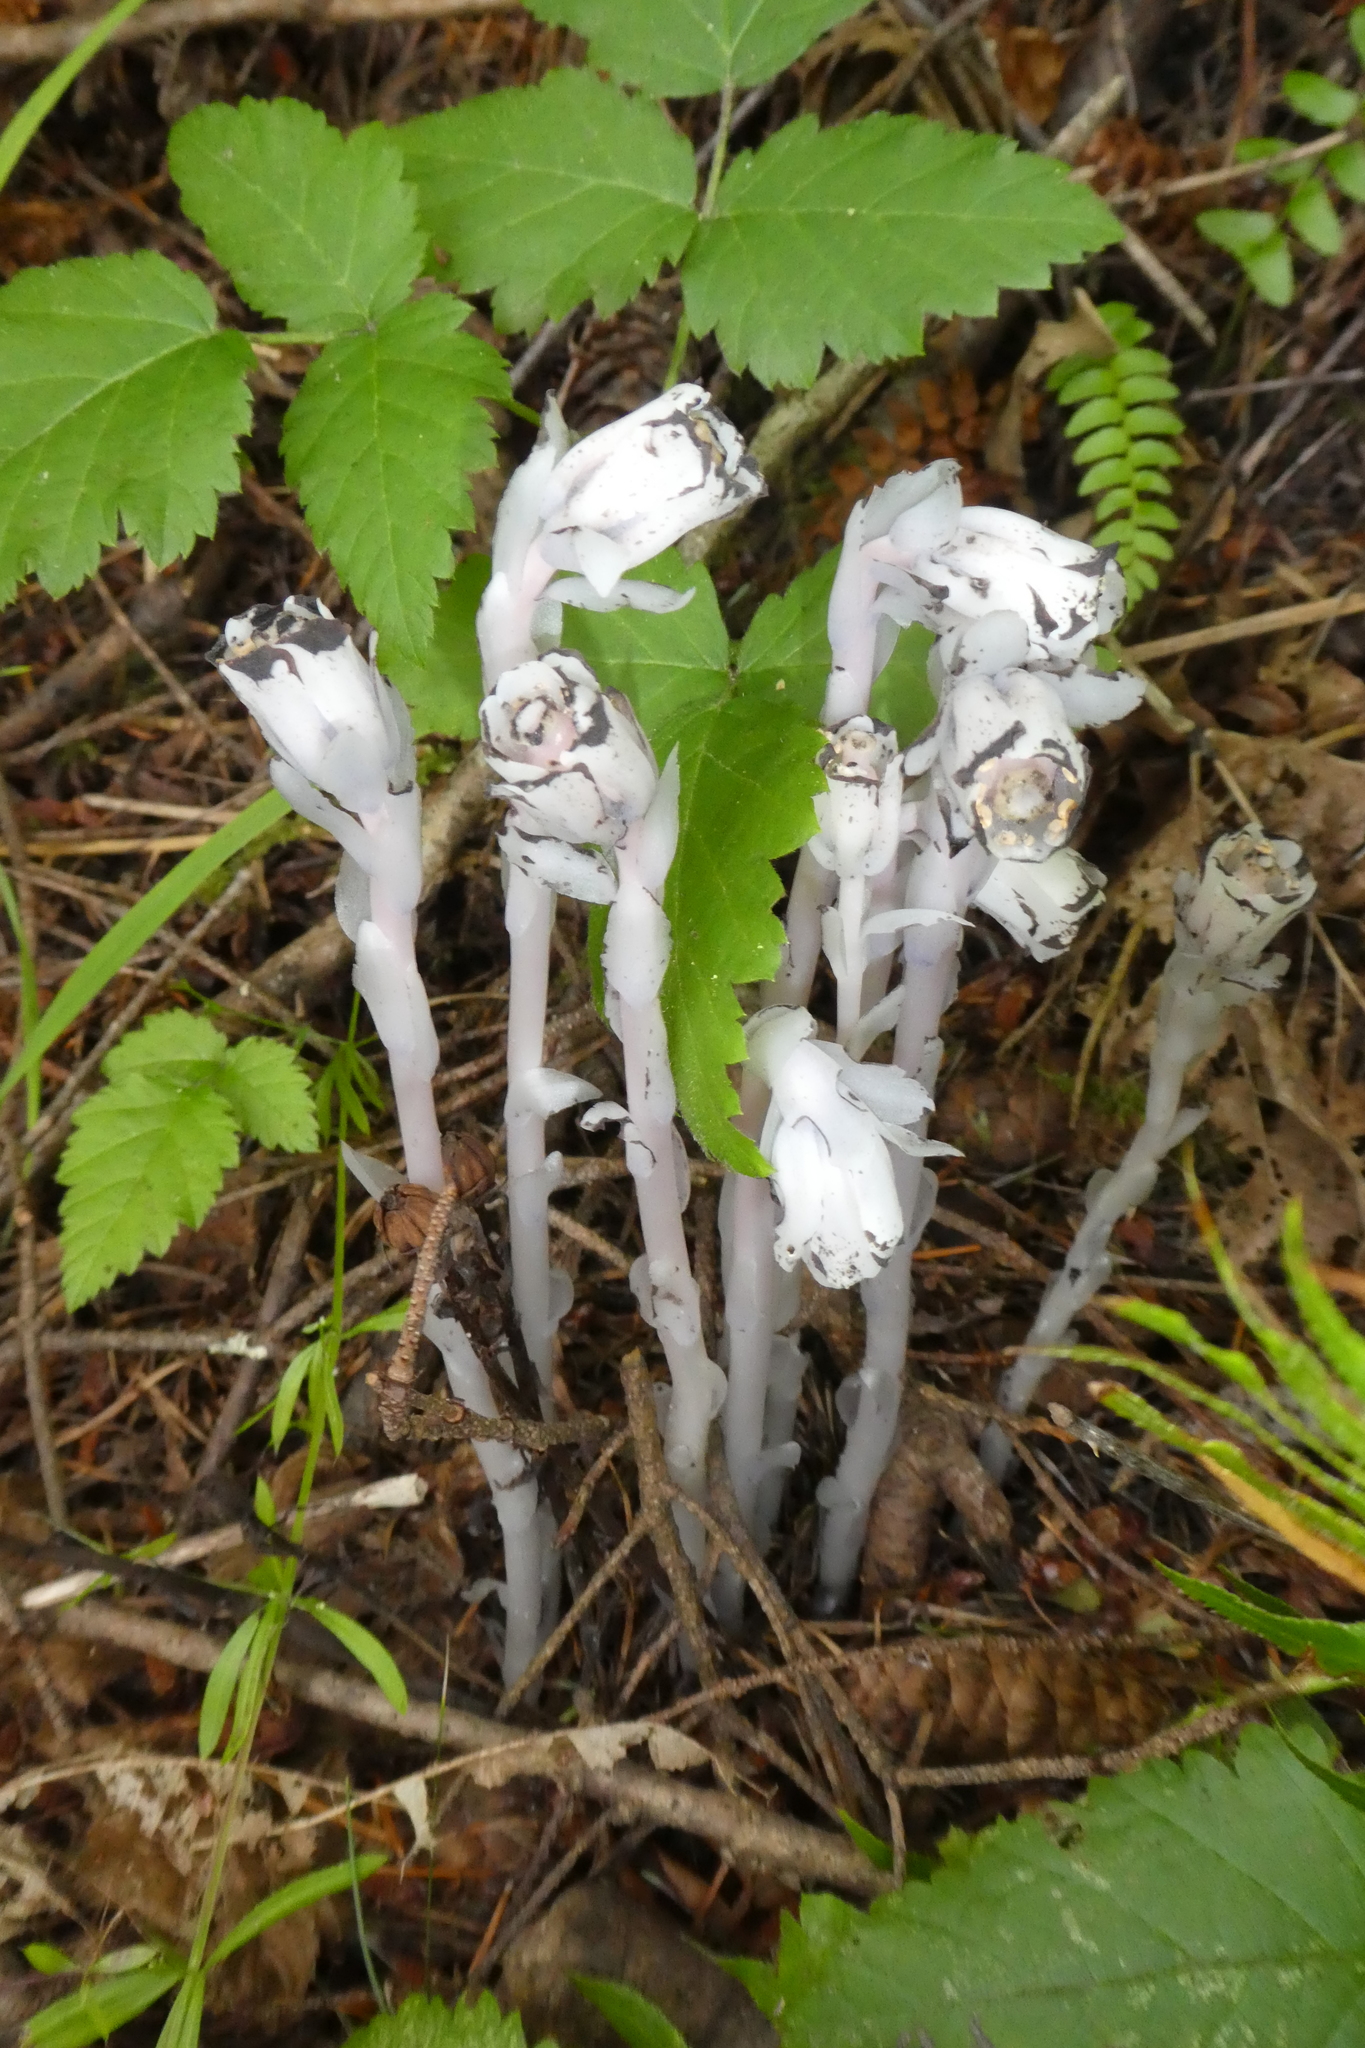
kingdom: Plantae
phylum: Tracheophyta
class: Magnoliopsida
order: Ericales
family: Ericaceae
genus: Monotropa
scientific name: Monotropa uniflora
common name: Convulsion root
